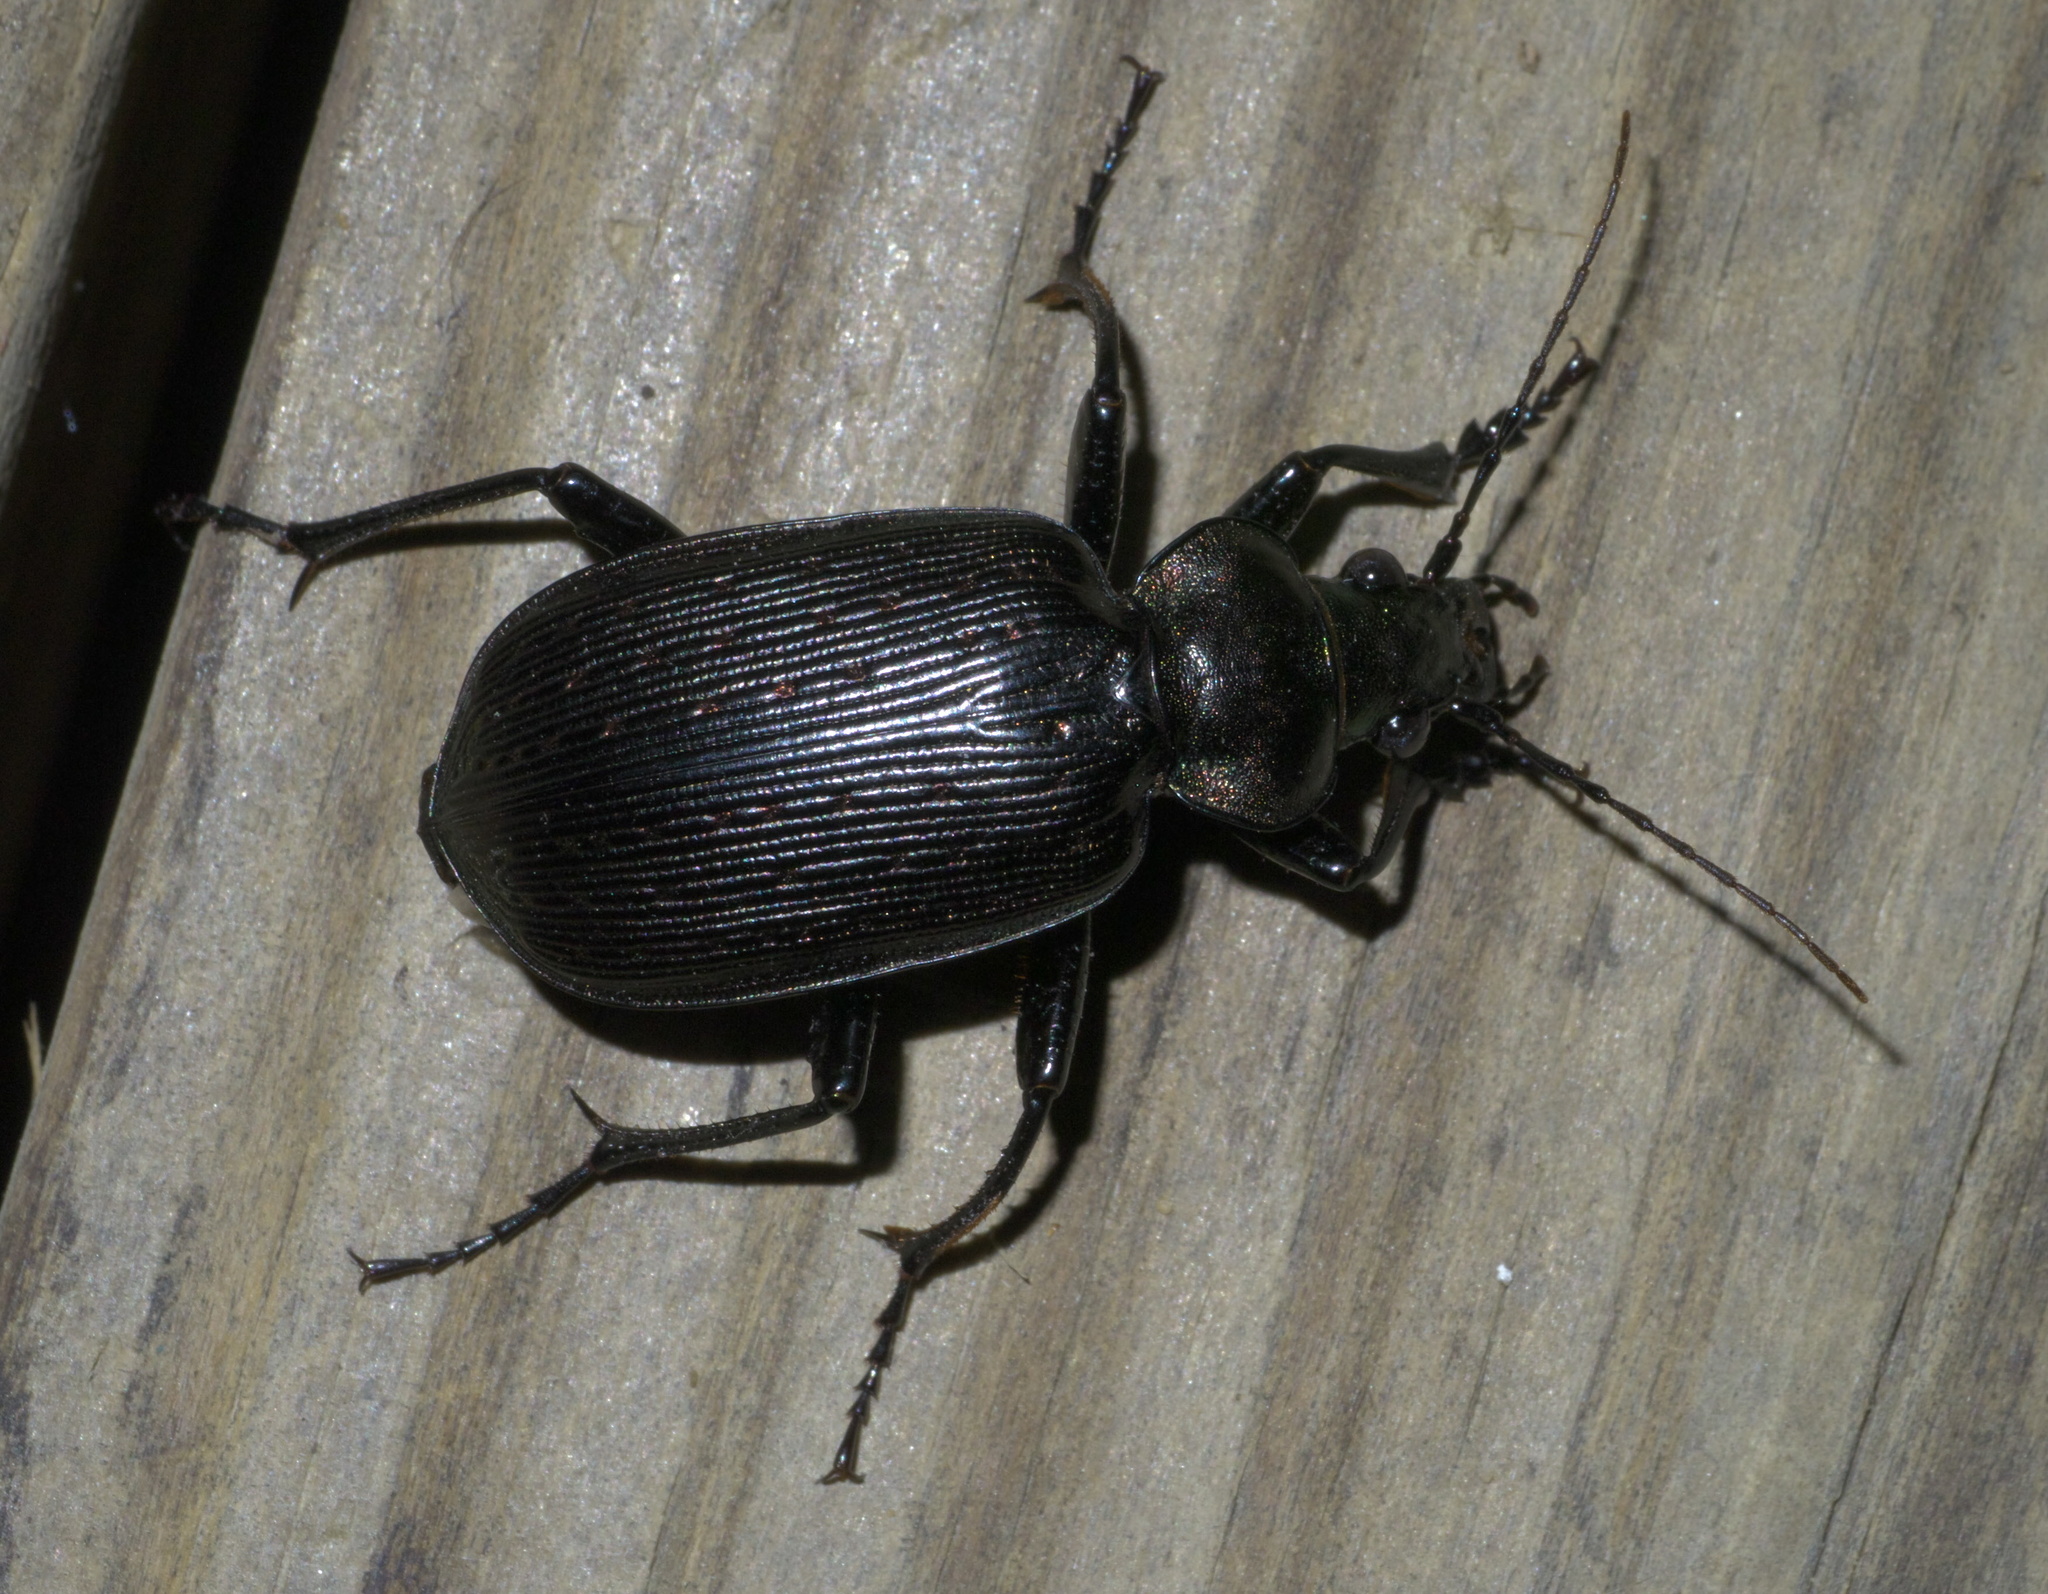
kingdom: Animalia
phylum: Arthropoda
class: Insecta
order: Coleoptera
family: Carabidae
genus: Calosoma
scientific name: Calosoma sayi
